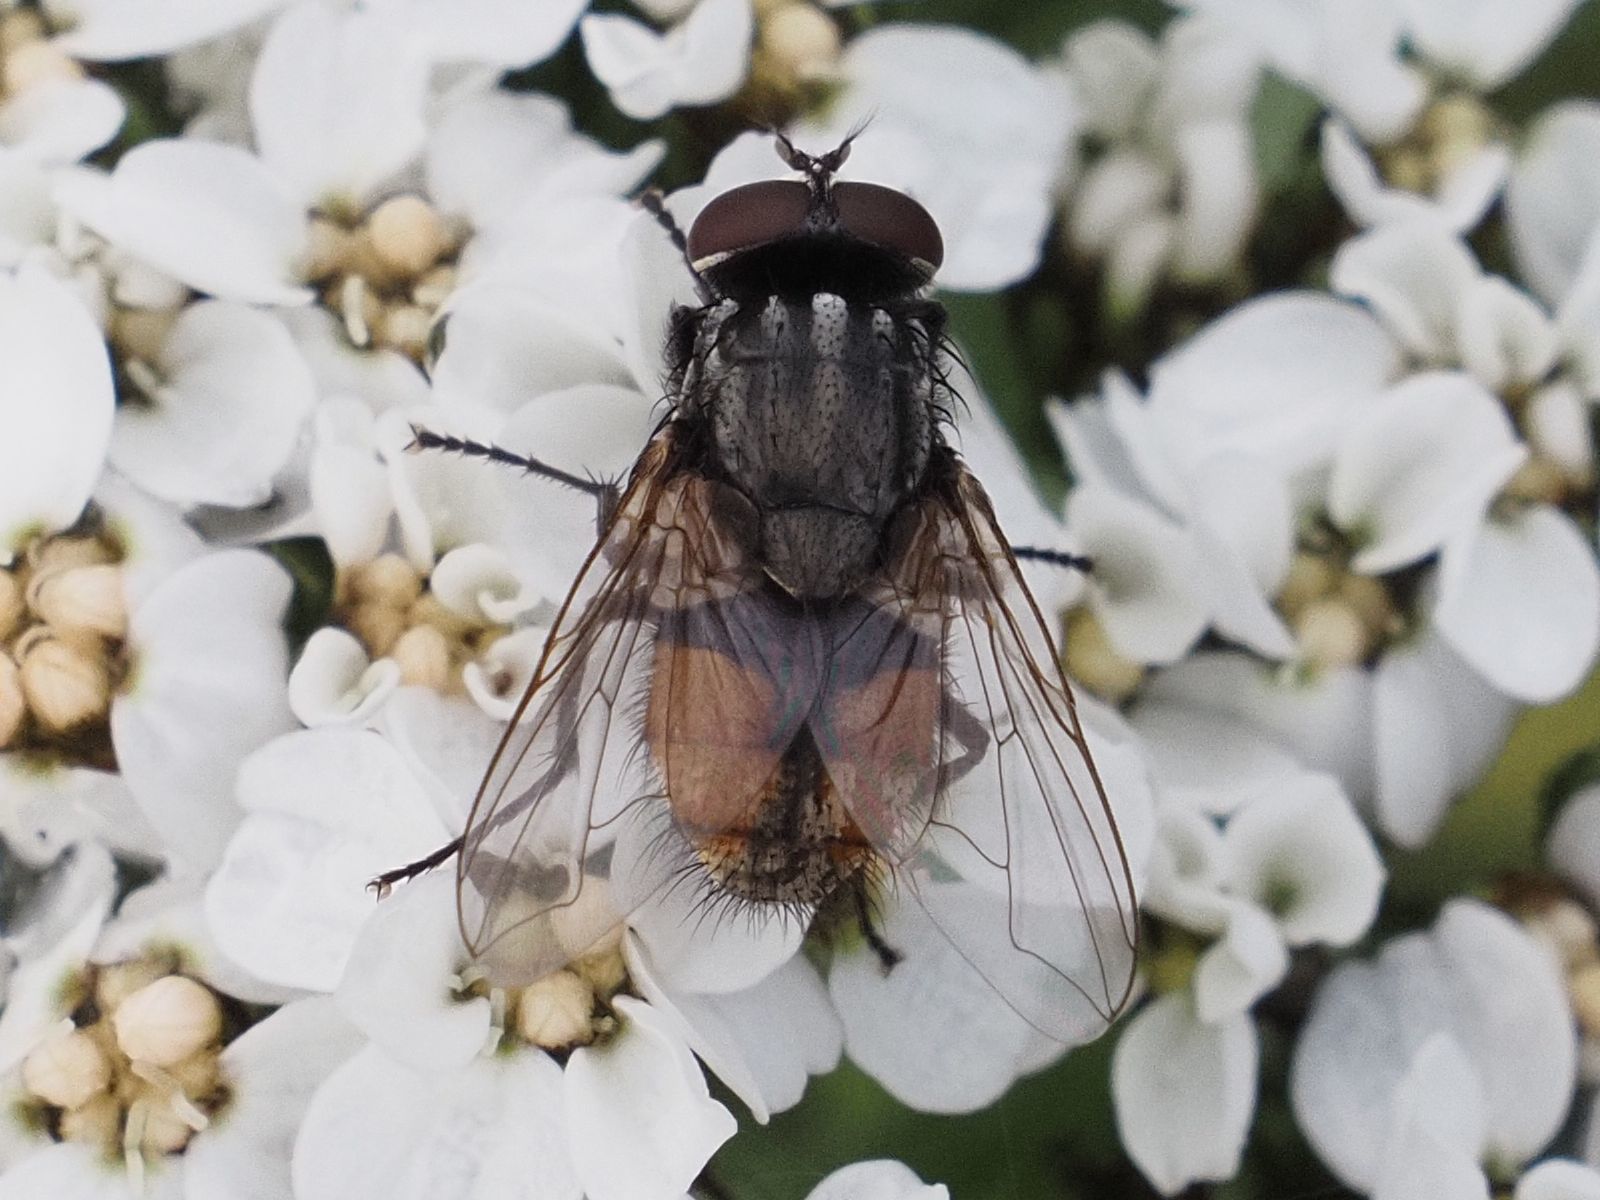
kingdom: Animalia
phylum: Arthropoda
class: Insecta
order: Diptera
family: Muscidae
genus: Musca
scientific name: Musca autumnalis
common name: Face fly
